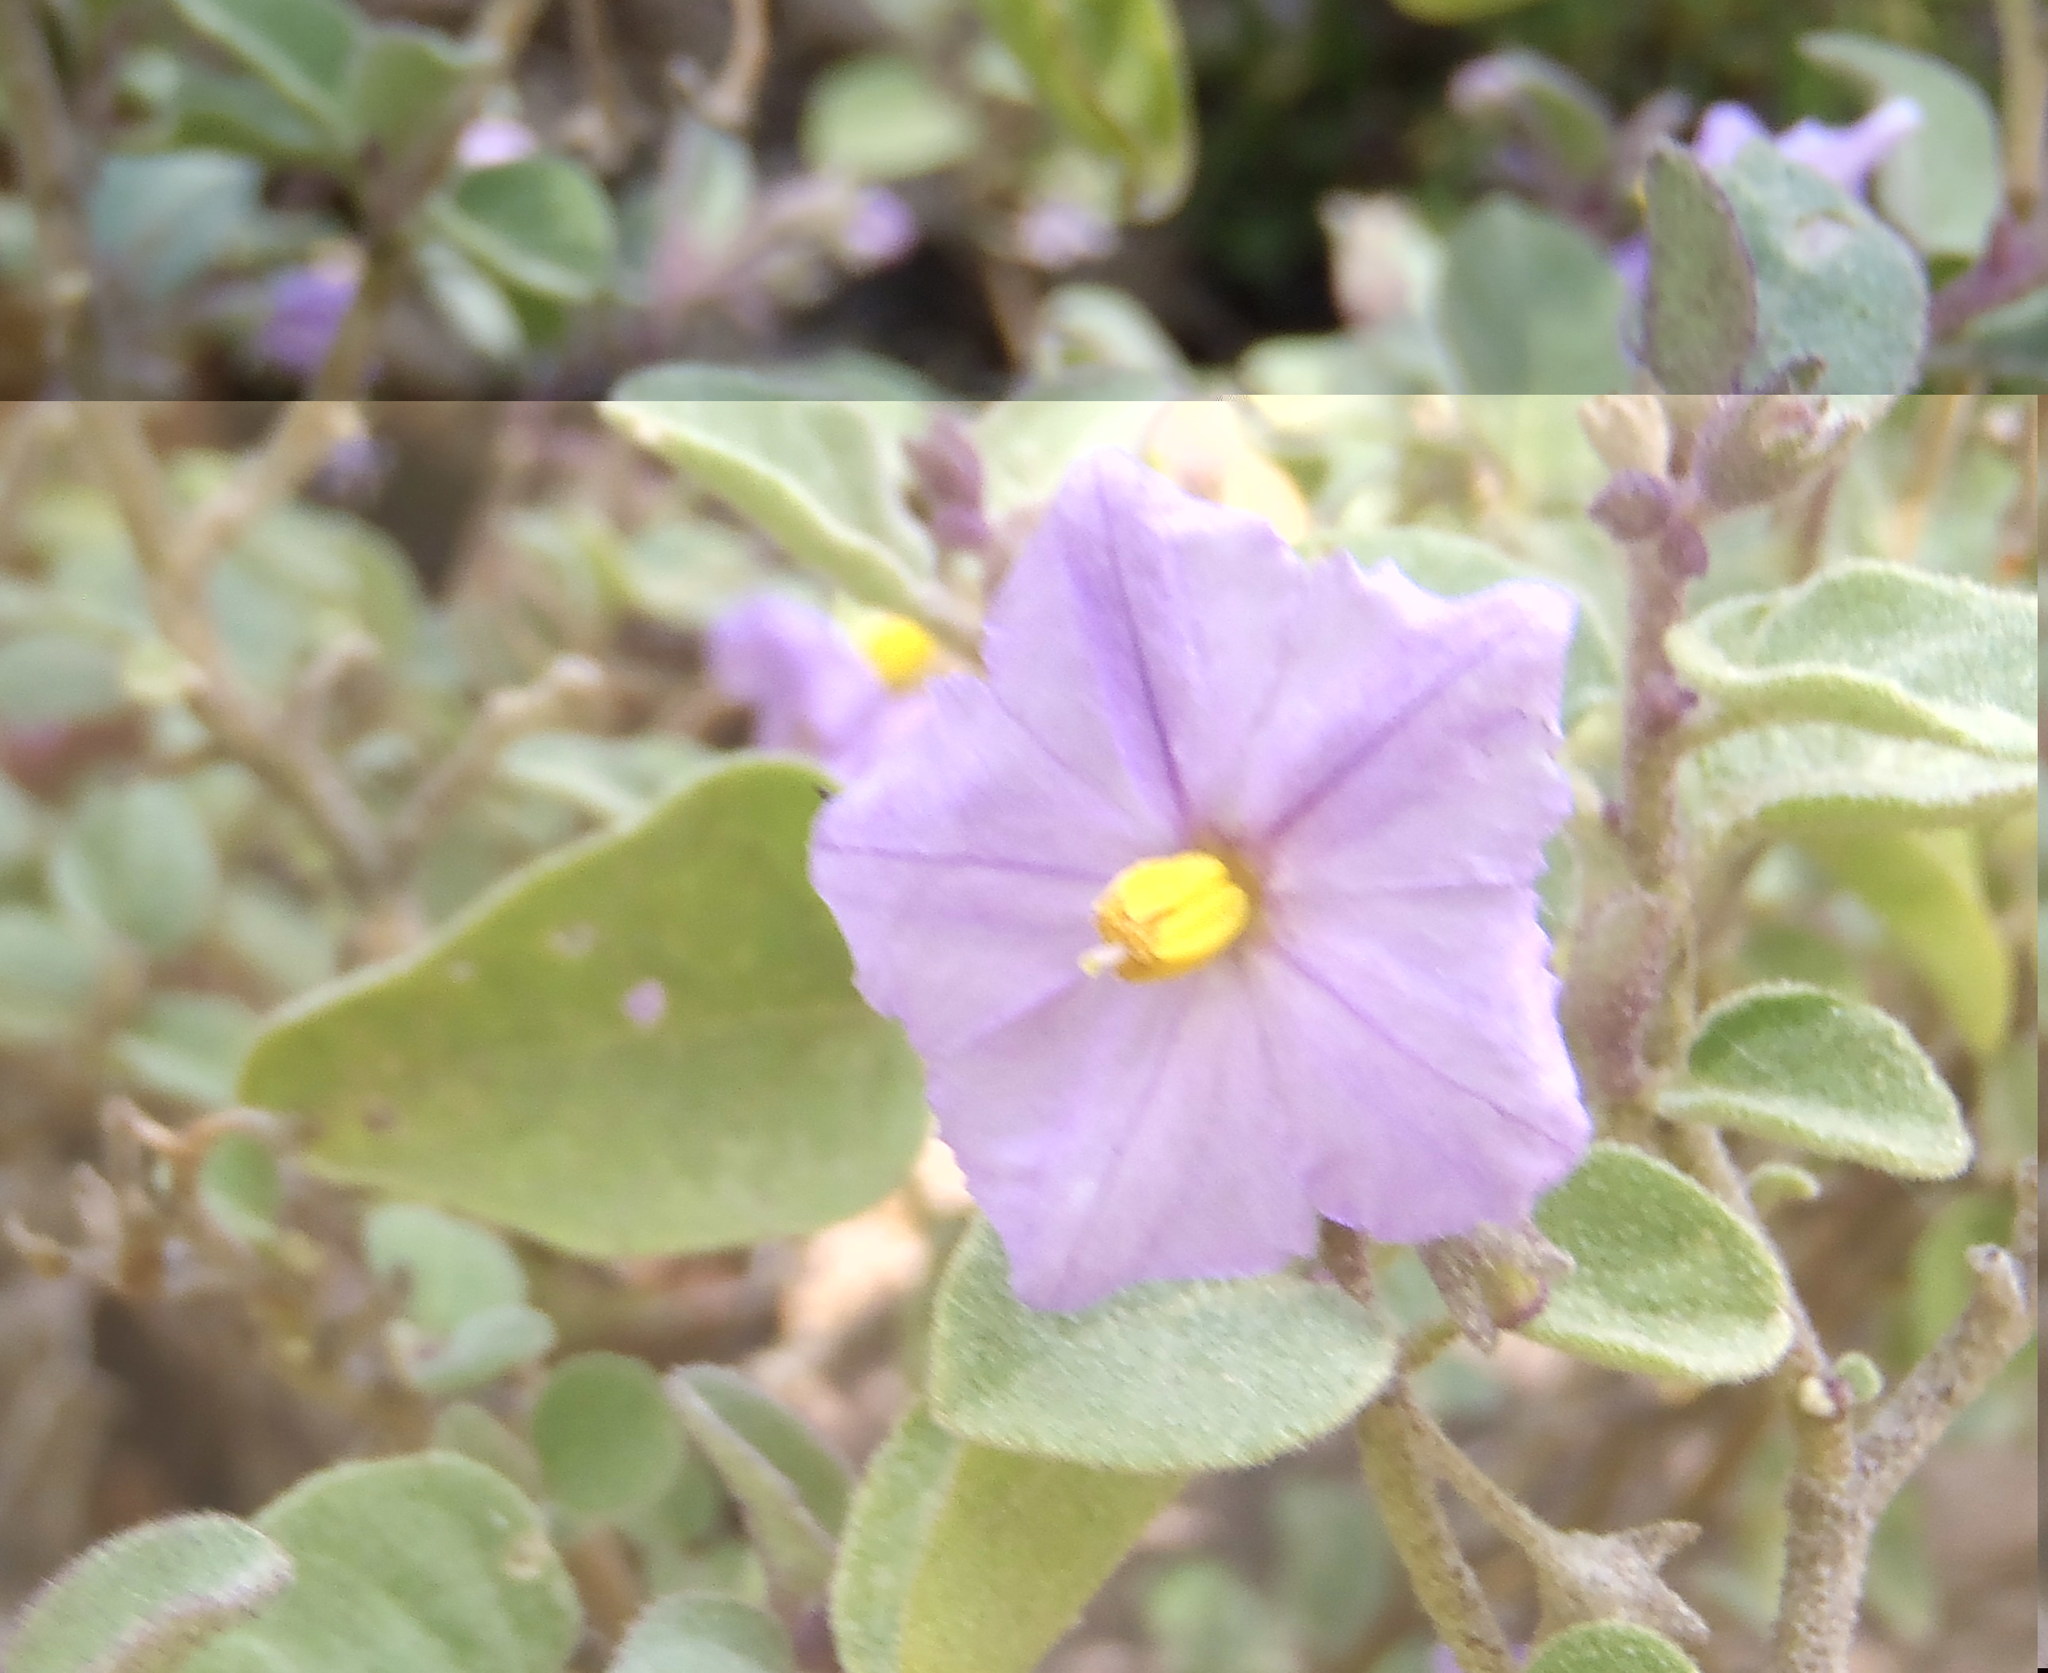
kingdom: Plantae
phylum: Tracheophyta
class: Magnoliopsida
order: Solanales
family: Solanaceae
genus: Solanum
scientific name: Solanum tomentosum
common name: Wild aubergine
